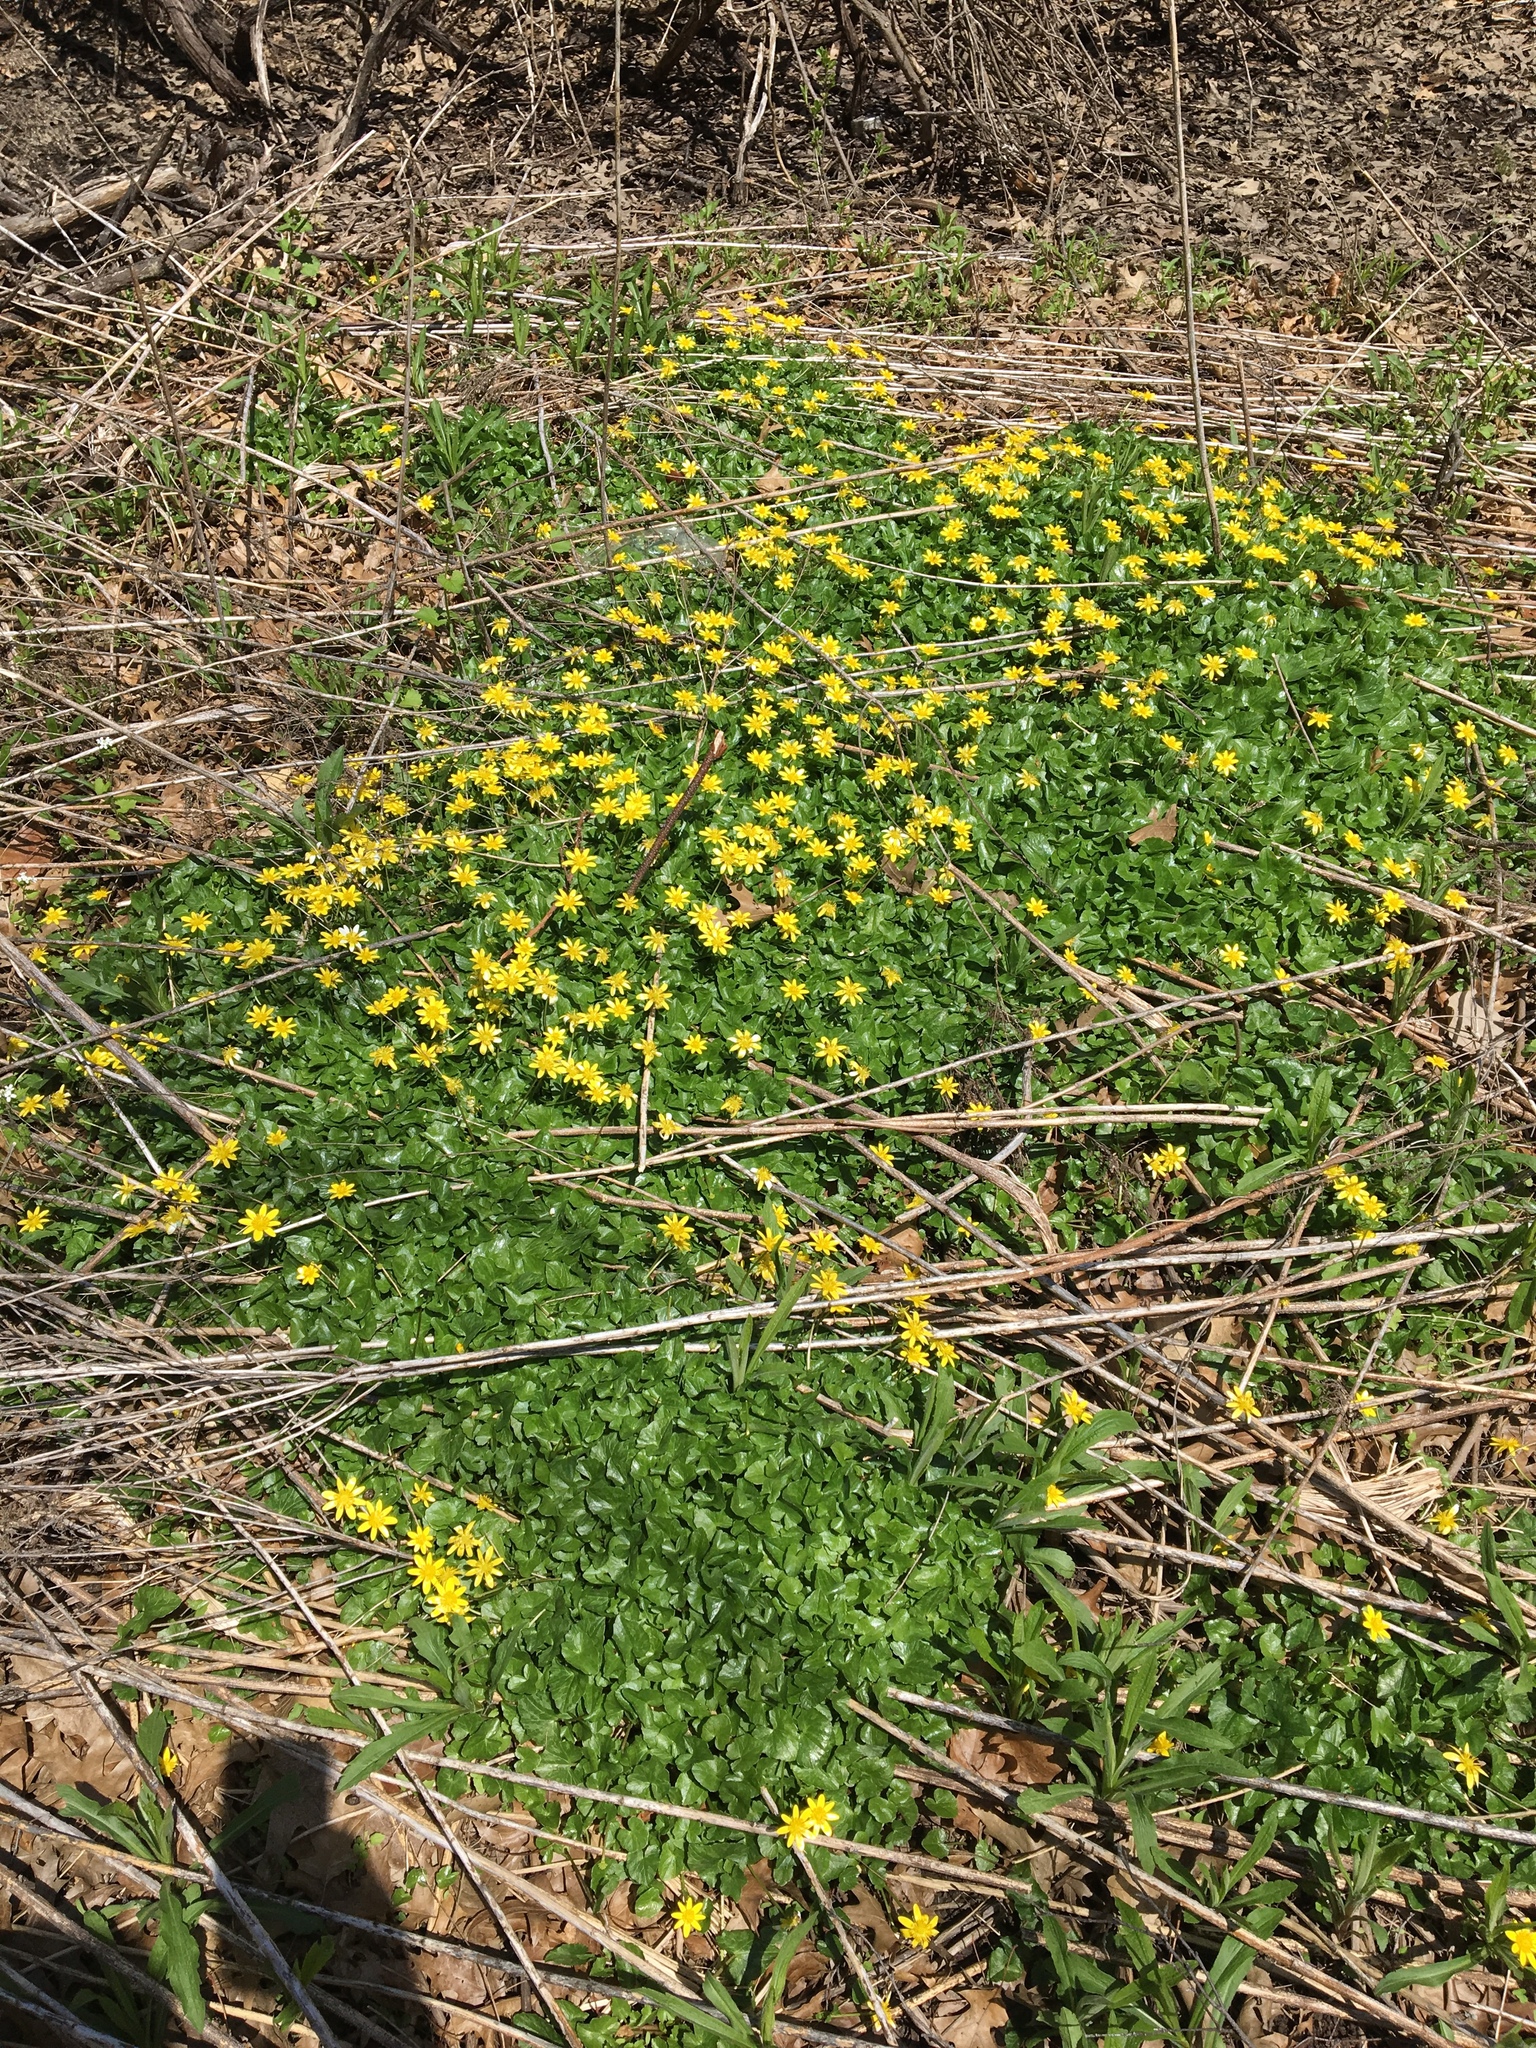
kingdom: Plantae
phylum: Tracheophyta
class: Magnoliopsida
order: Ranunculales
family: Ranunculaceae
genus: Ficaria
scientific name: Ficaria verna
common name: Lesser celandine
